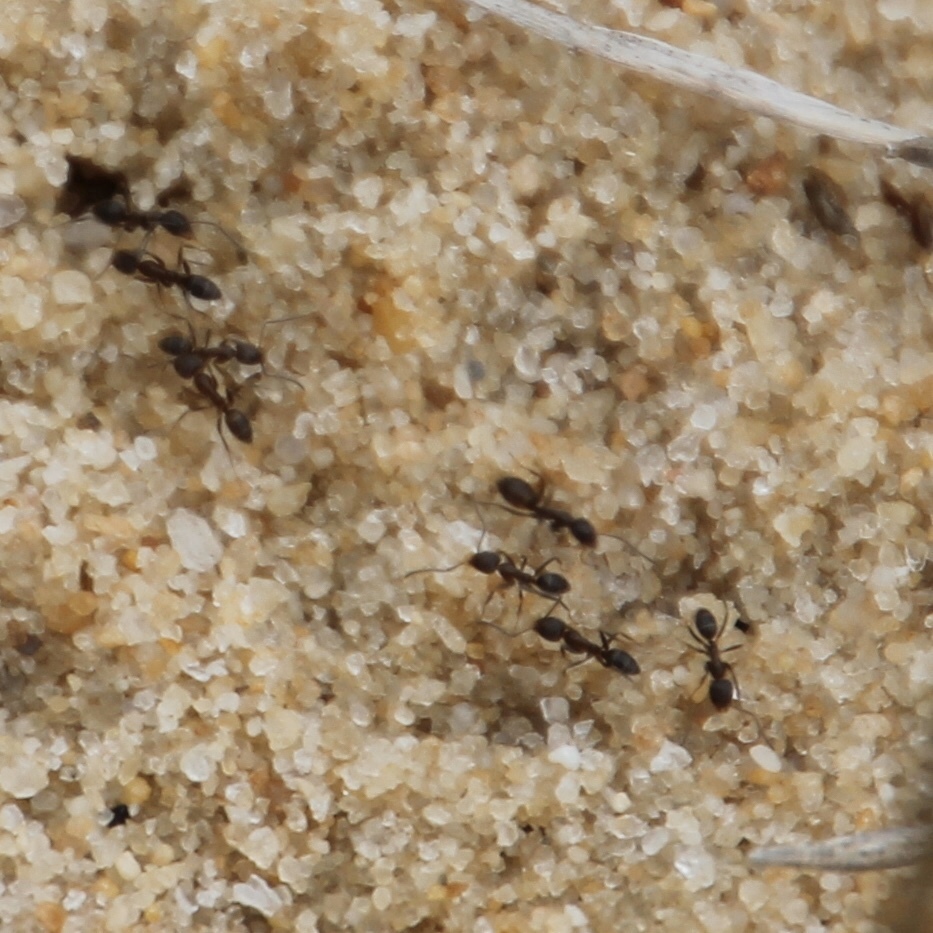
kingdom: Animalia
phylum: Arthropoda
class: Insecta
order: Hymenoptera
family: Formicidae
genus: Linepithema
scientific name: Linepithema humile
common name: Argentine ant
